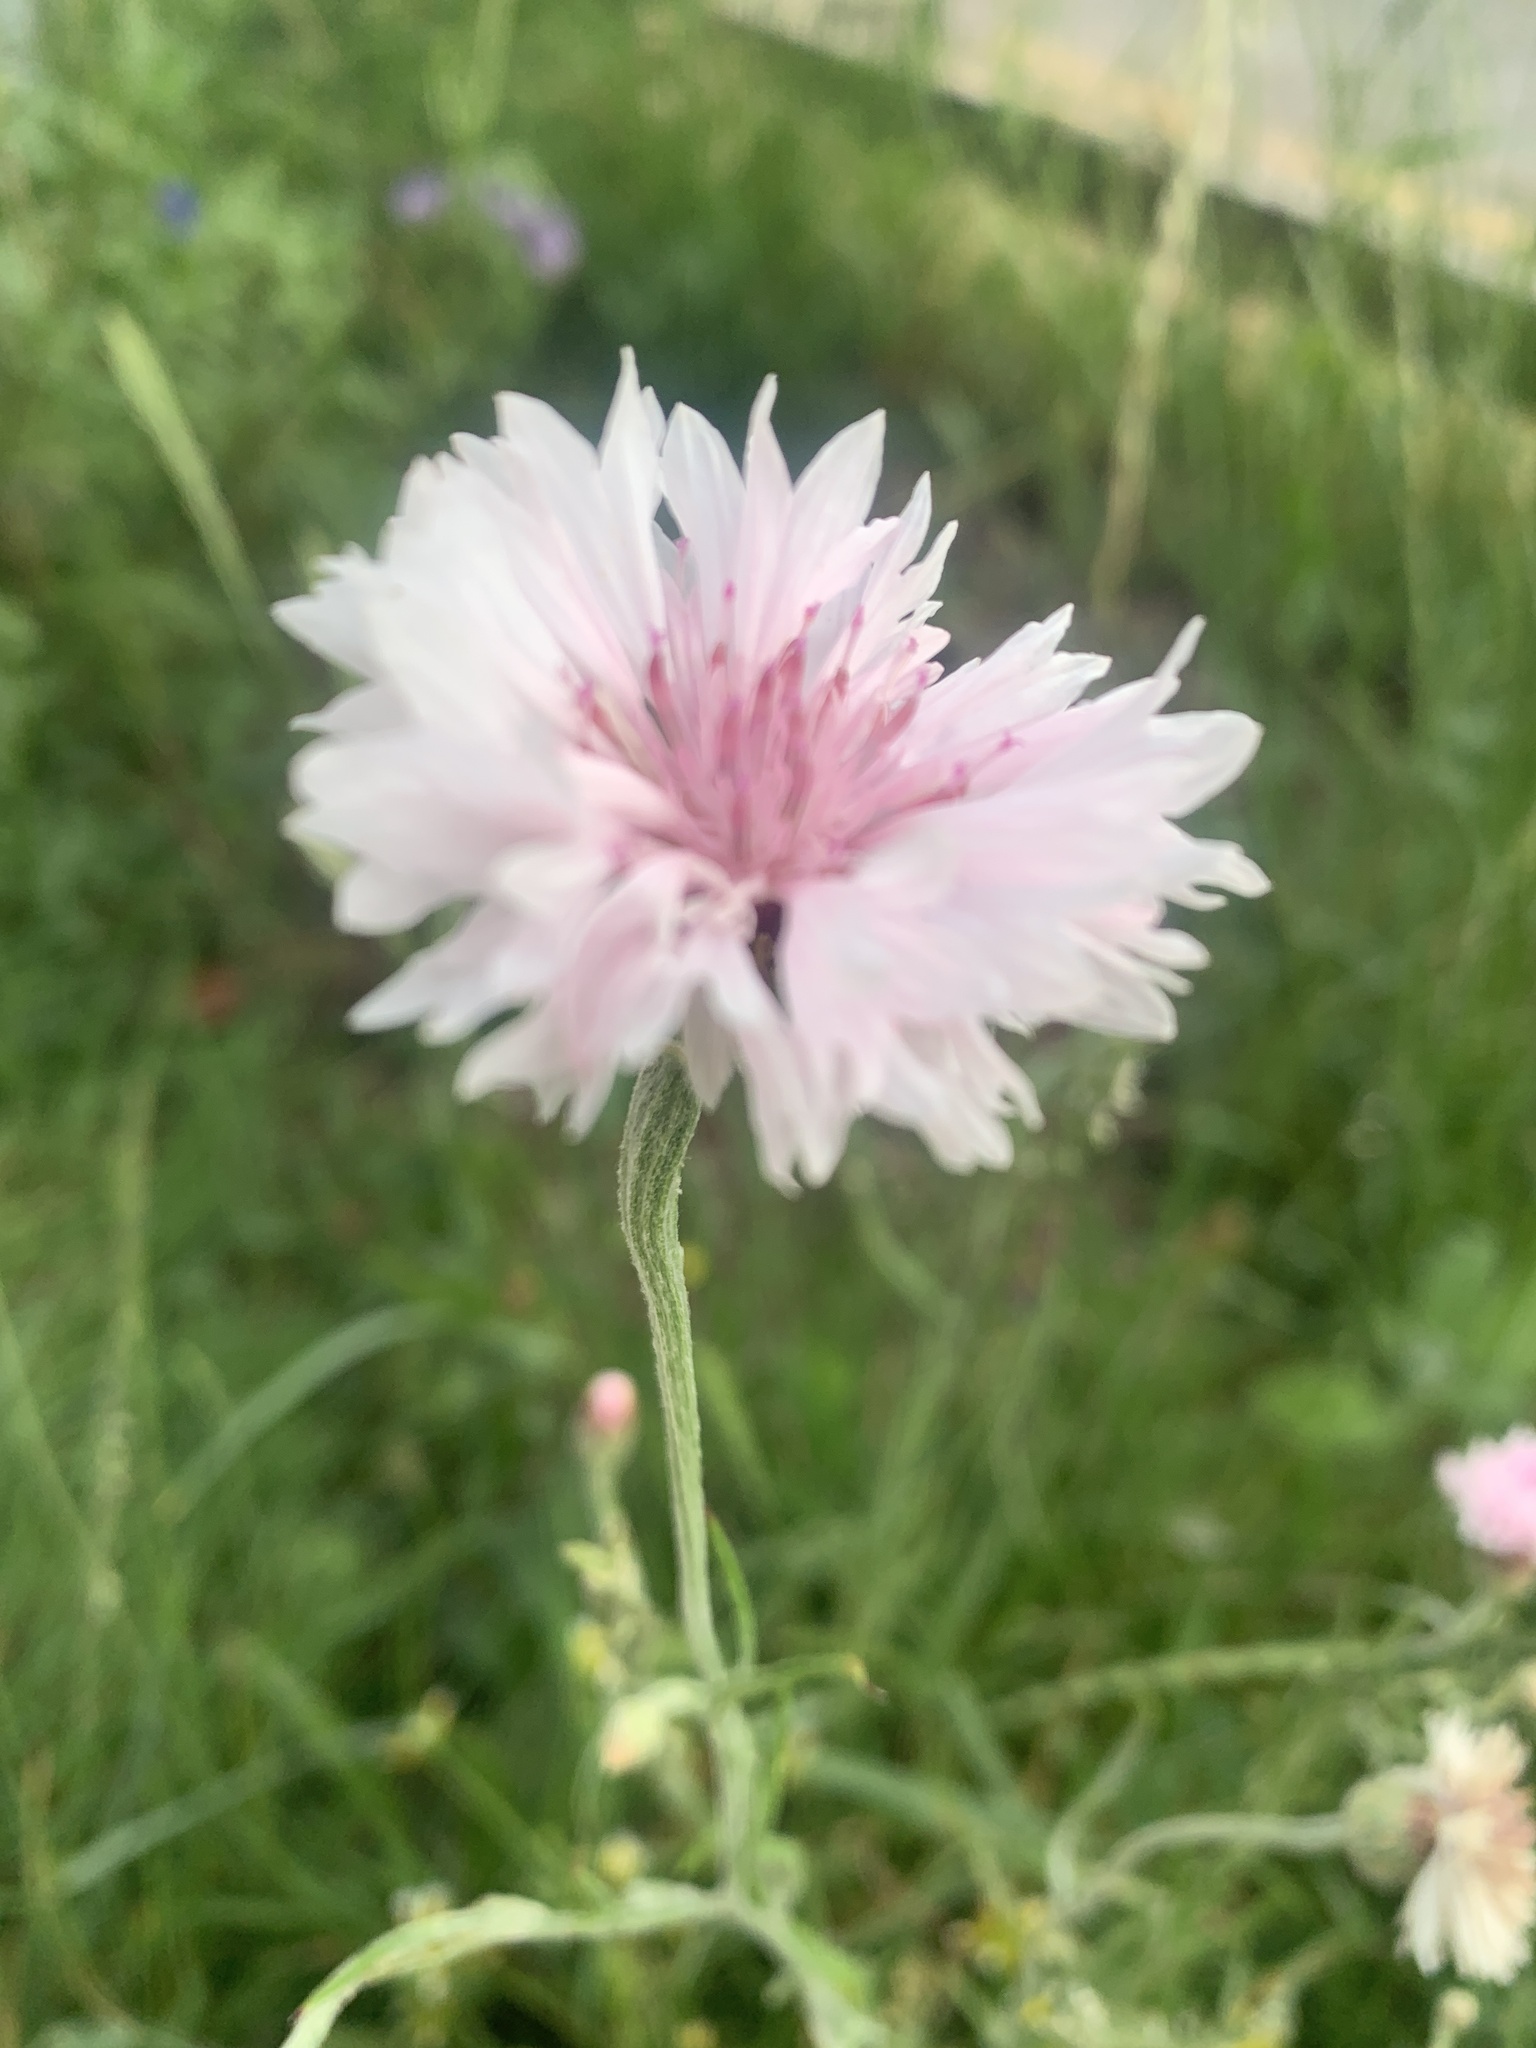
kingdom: Plantae
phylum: Tracheophyta
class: Magnoliopsida
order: Asterales
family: Asteraceae
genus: Centaurea
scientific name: Centaurea cyanus
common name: Cornflower
